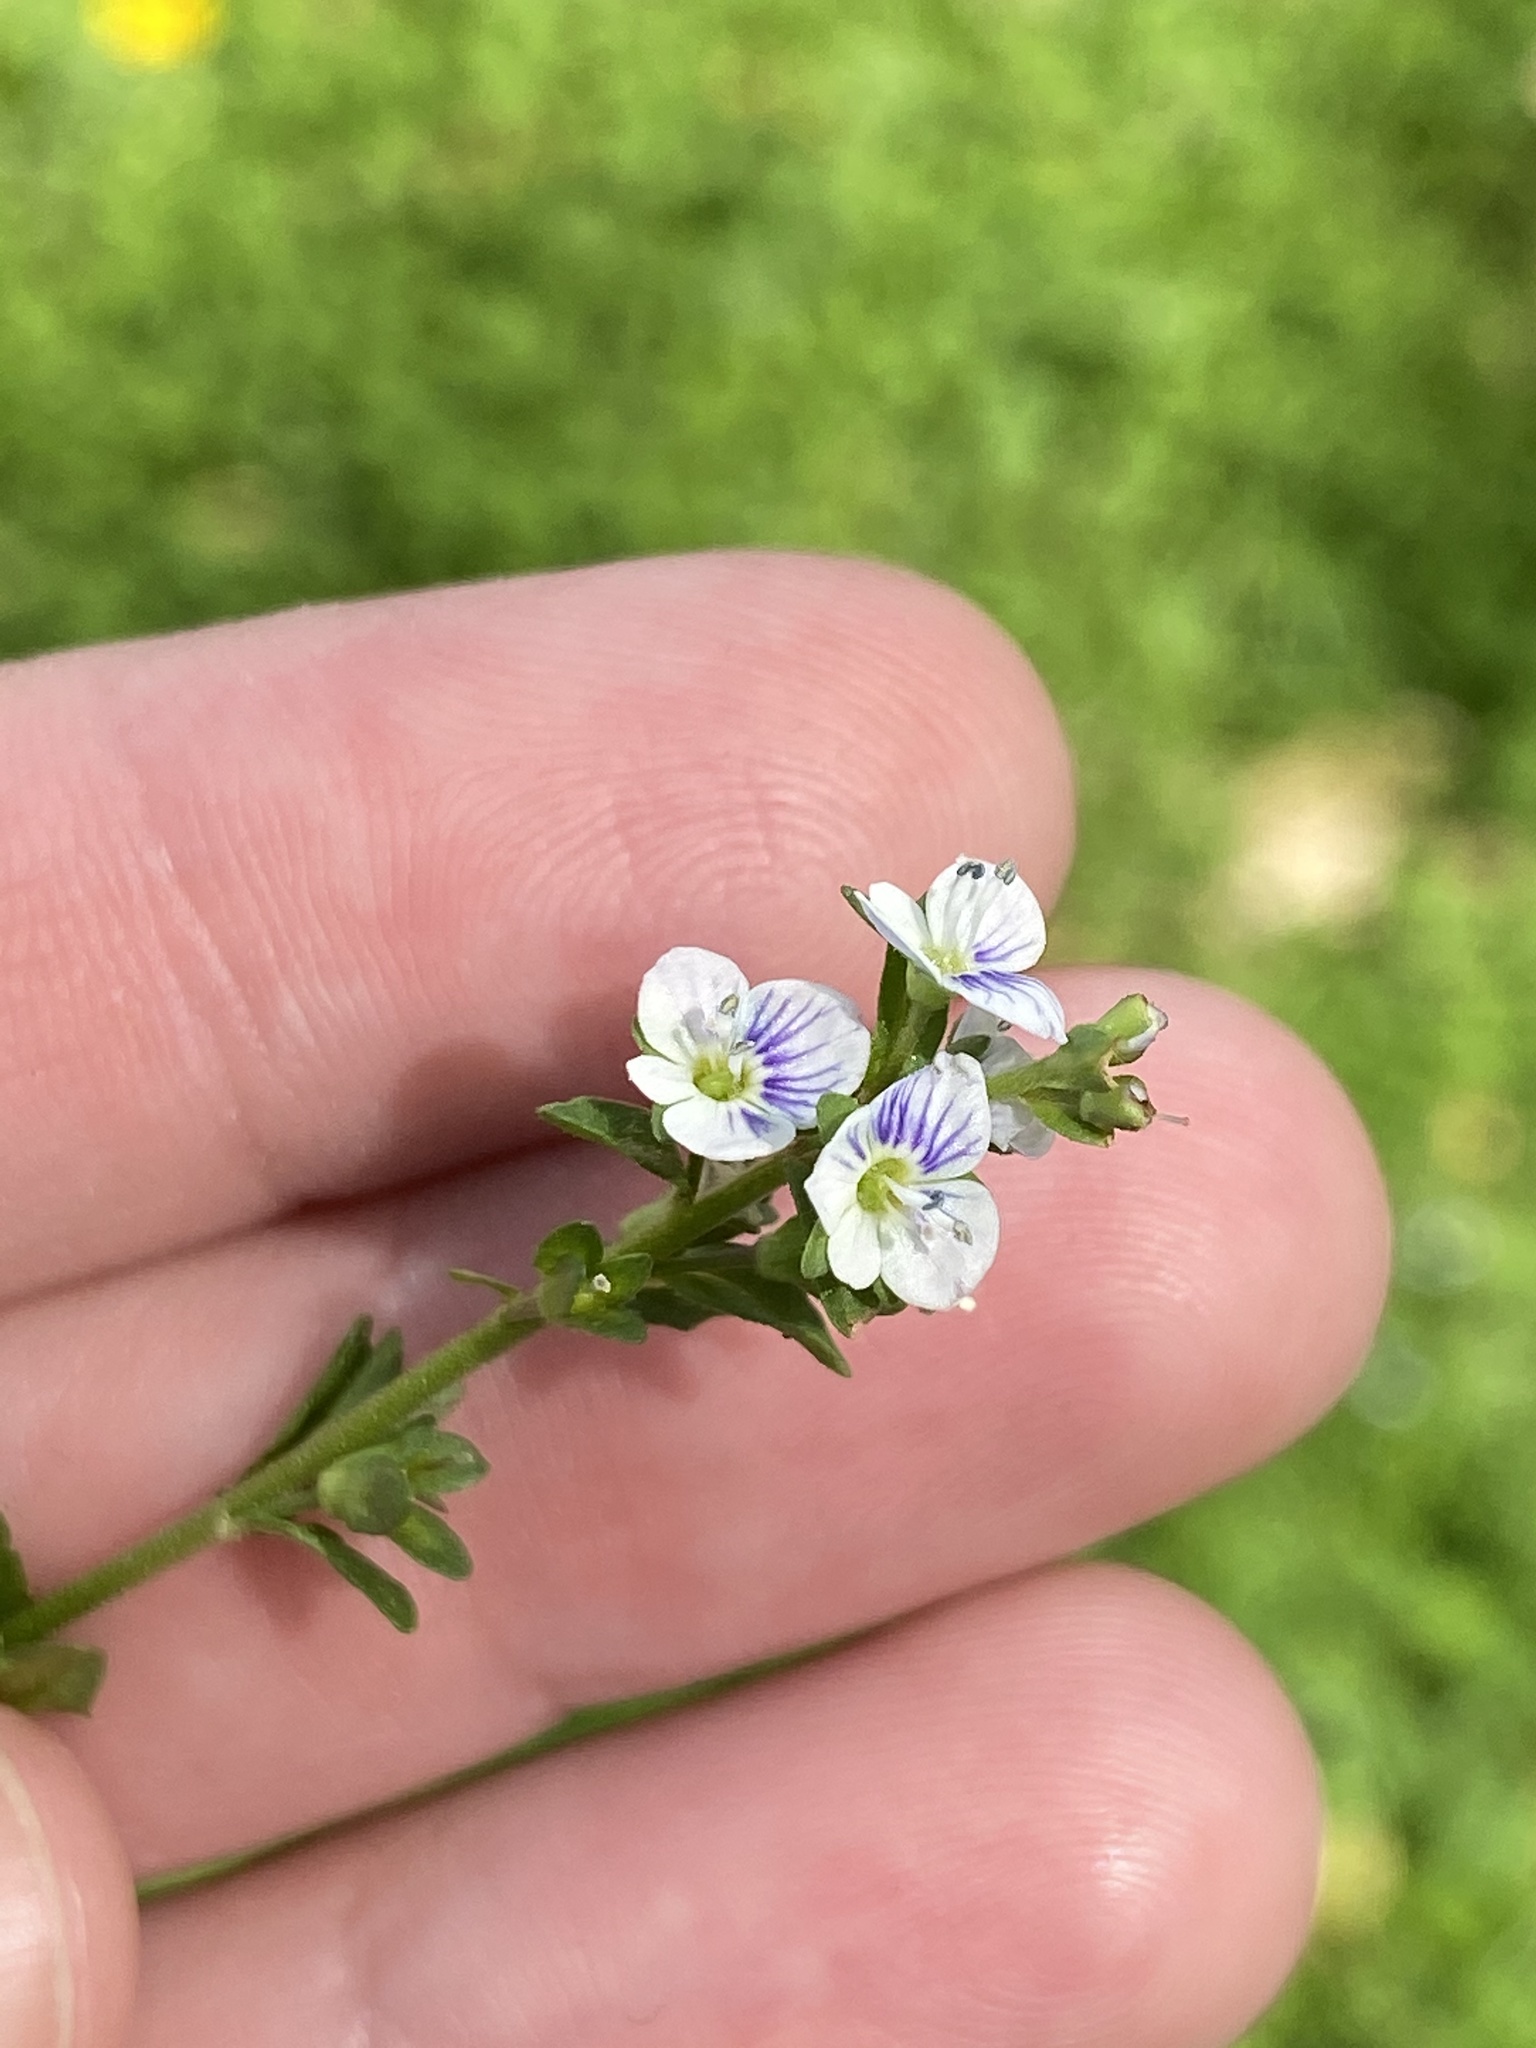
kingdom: Plantae
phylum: Tracheophyta
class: Magnoliopsida
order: Lamiales
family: Plantaginaceae
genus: Veronica
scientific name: Veronica serpyllifolia
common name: Thyme-leaved speedwell
